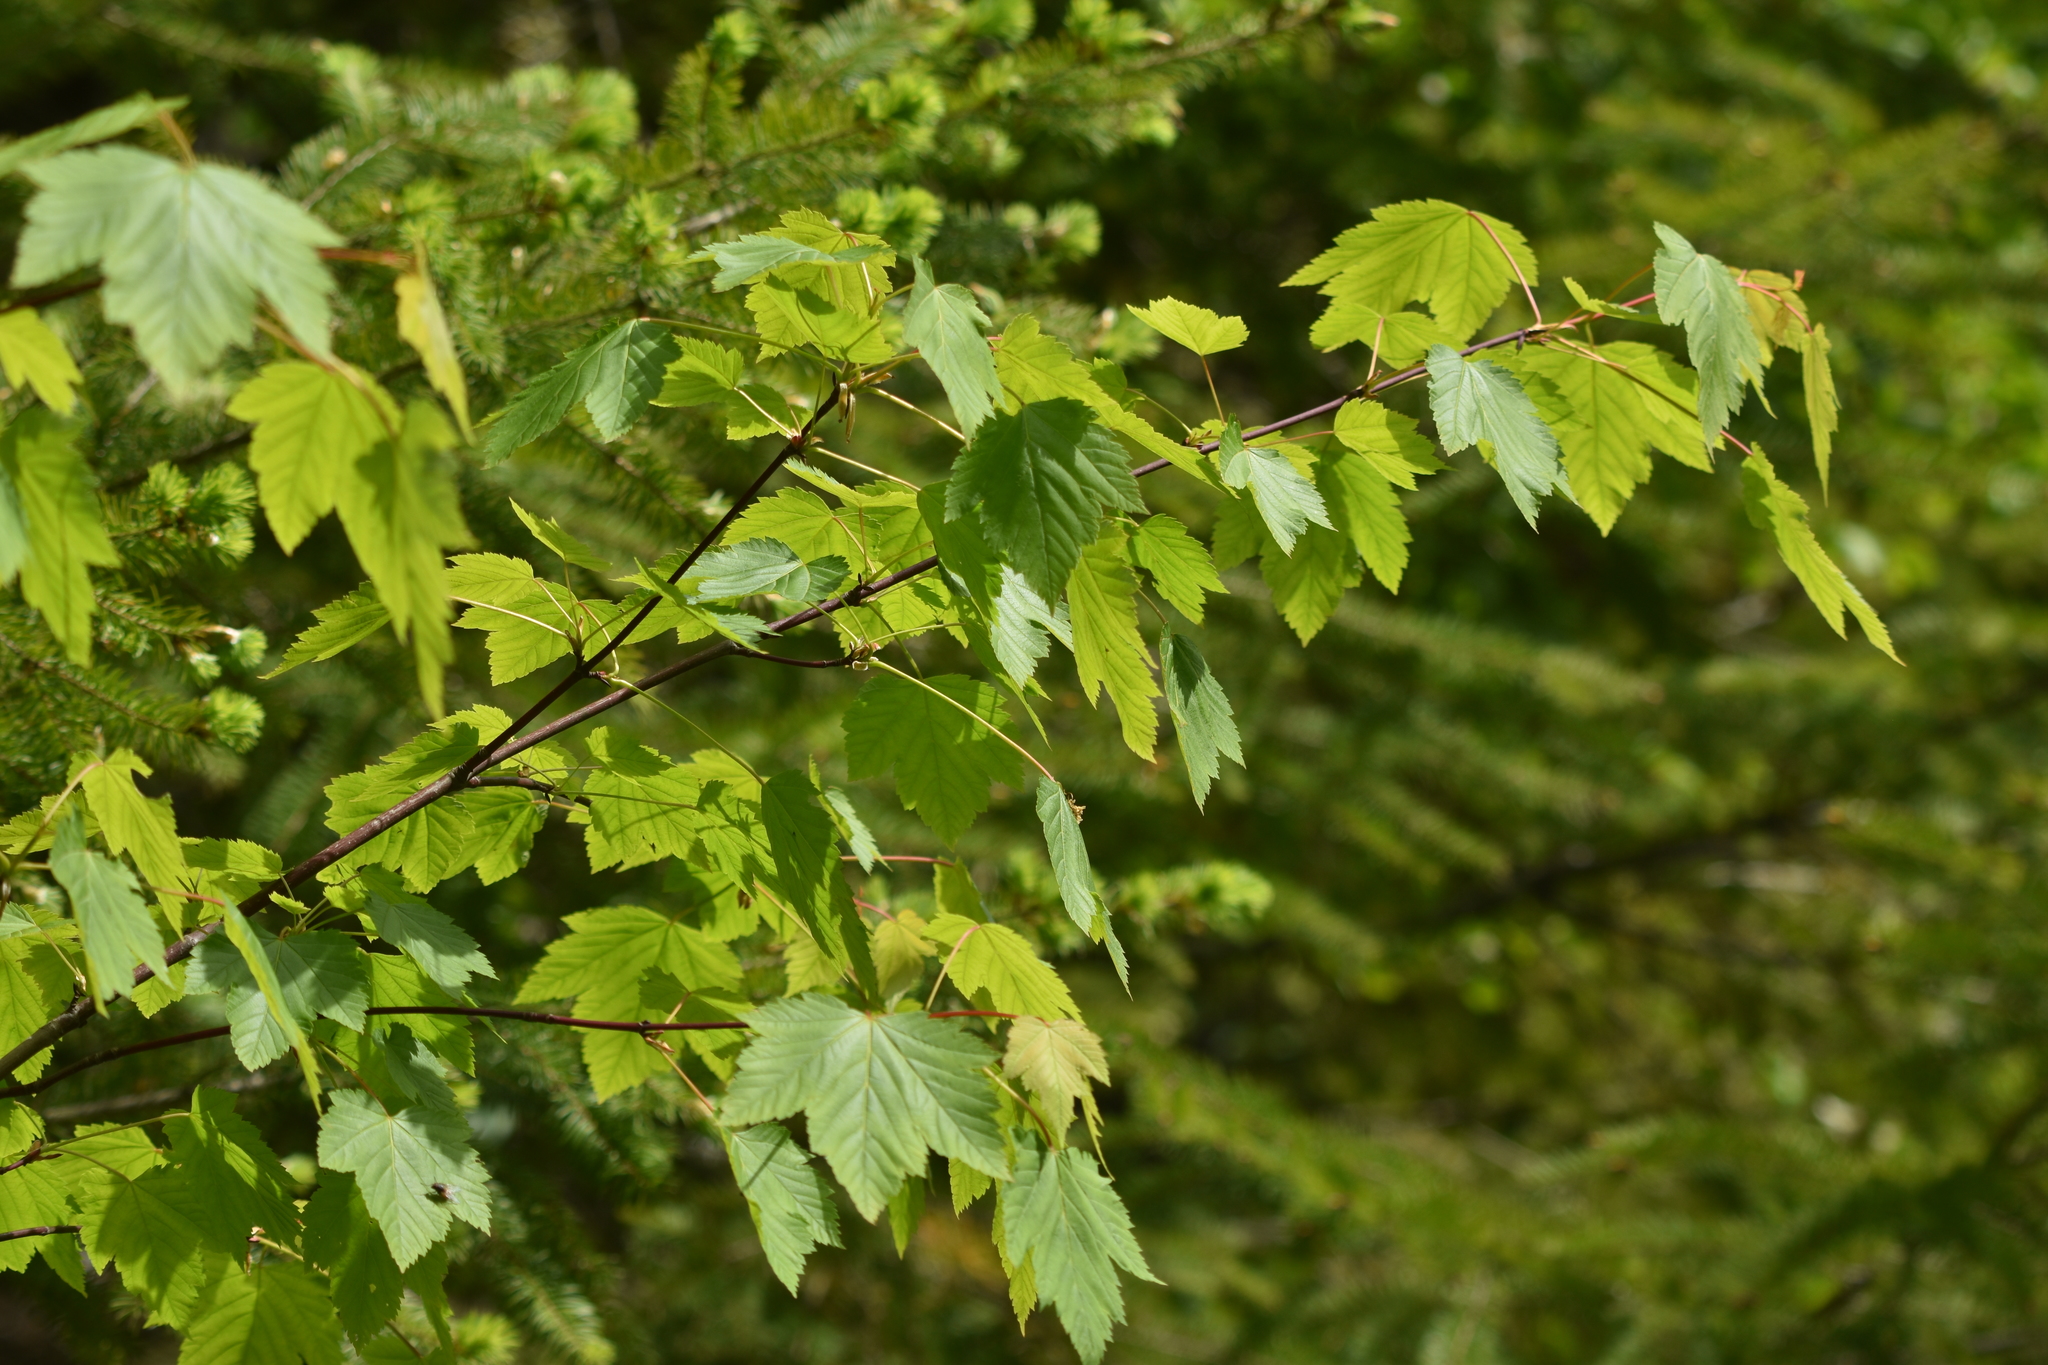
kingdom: Plantae
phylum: Tracheophyta
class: Magnoliopsida
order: Sapindales
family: Sapindaceae
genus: Acer
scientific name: Acer glabrum
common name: Rocky mountain maple
